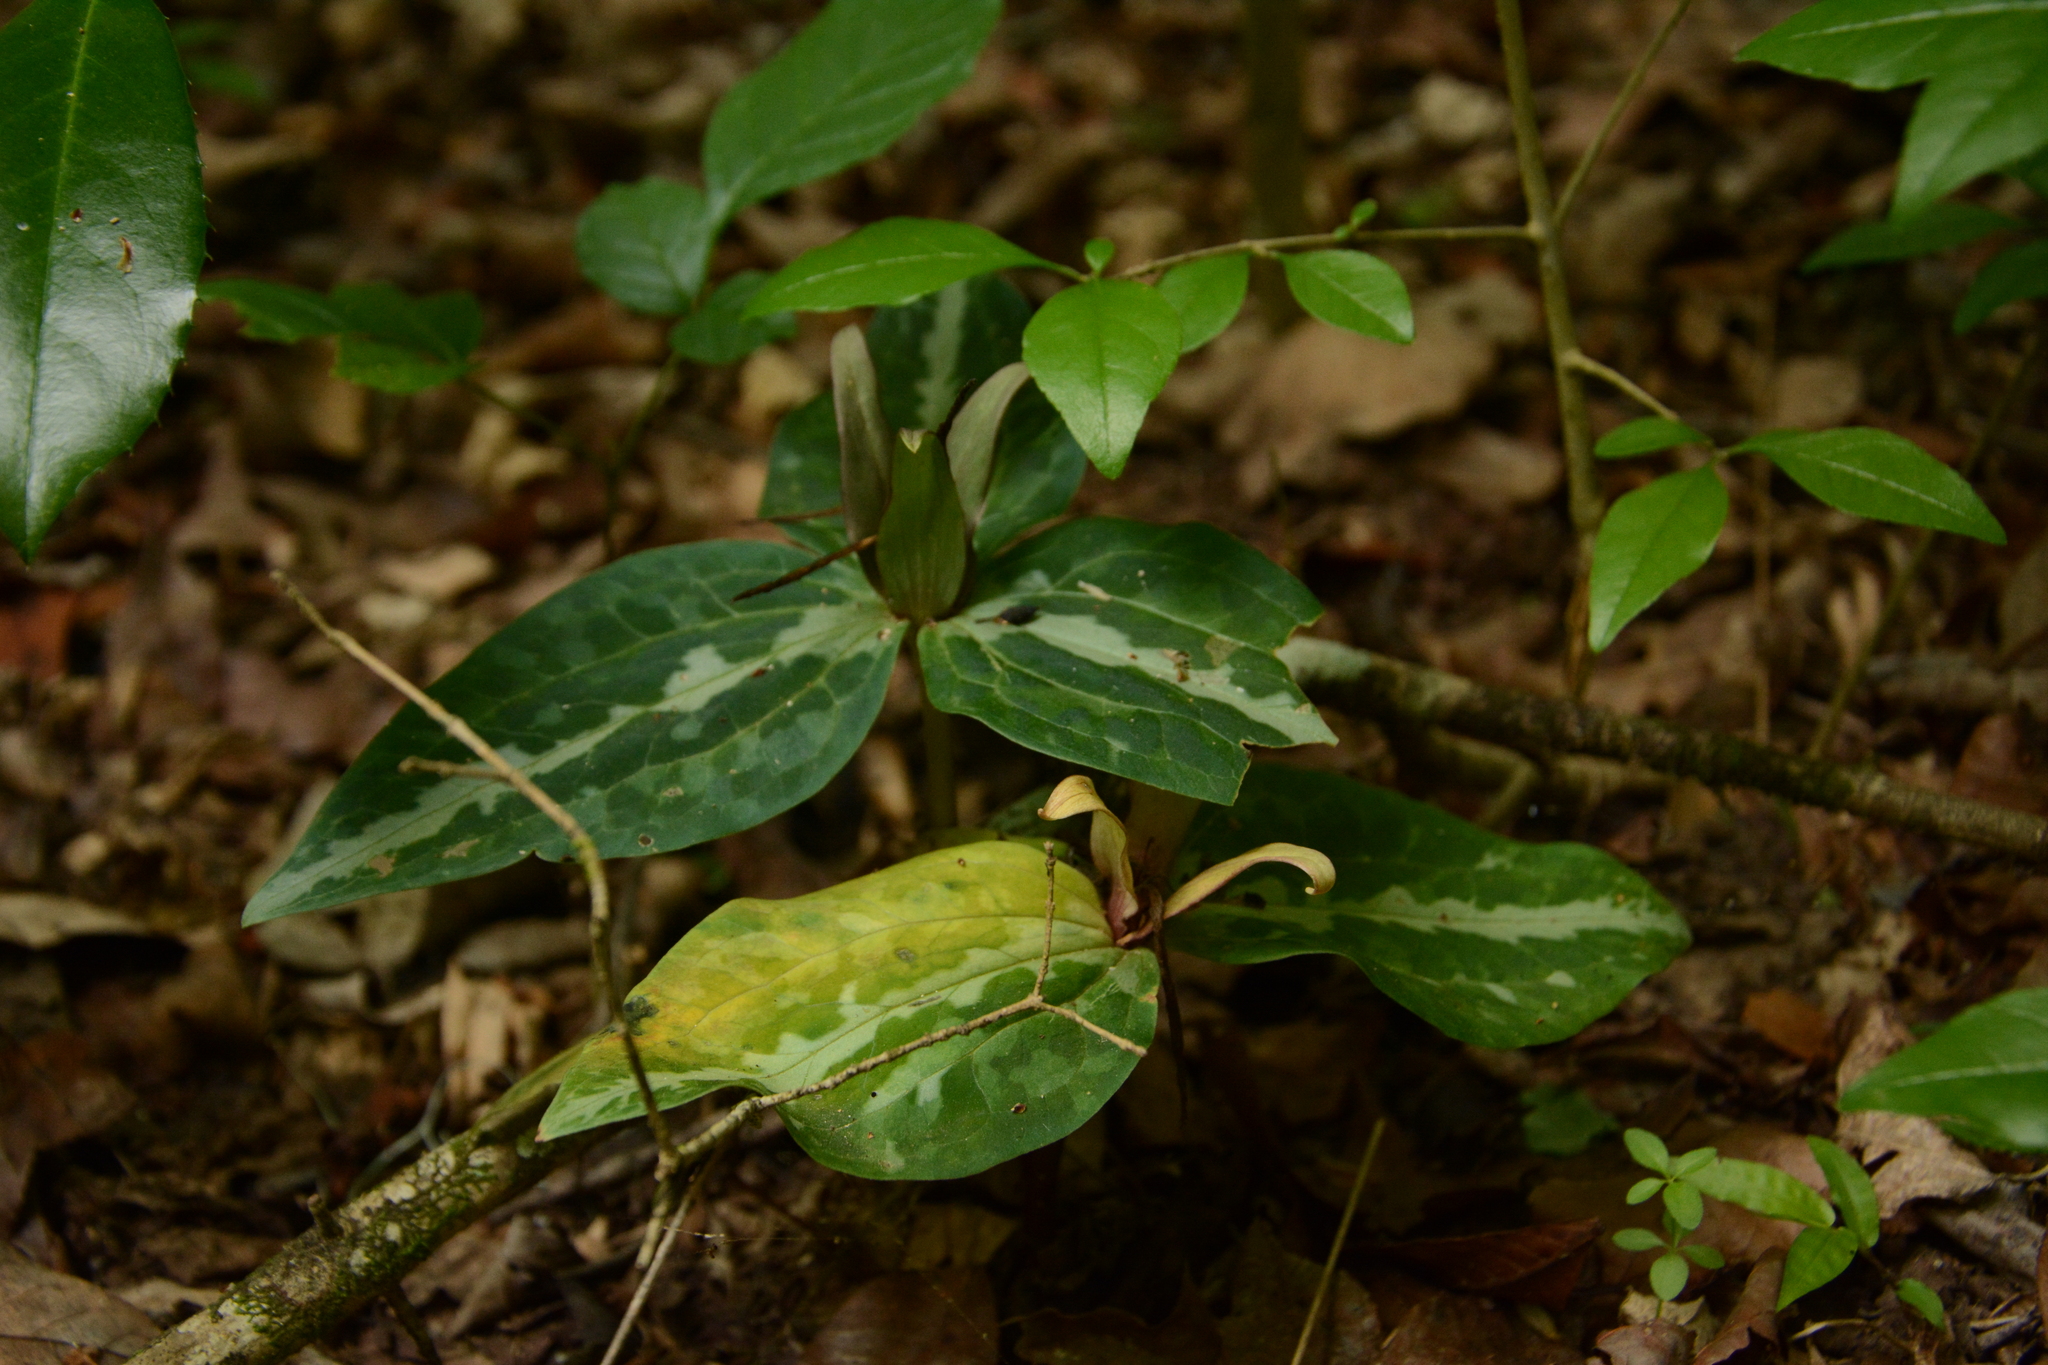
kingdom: Plantae
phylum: Tracheophyta
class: Liliopsida
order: Liliales
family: Melanthiaceae
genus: Trillium
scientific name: Trillium underwoodii
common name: Longbract wakerobin
